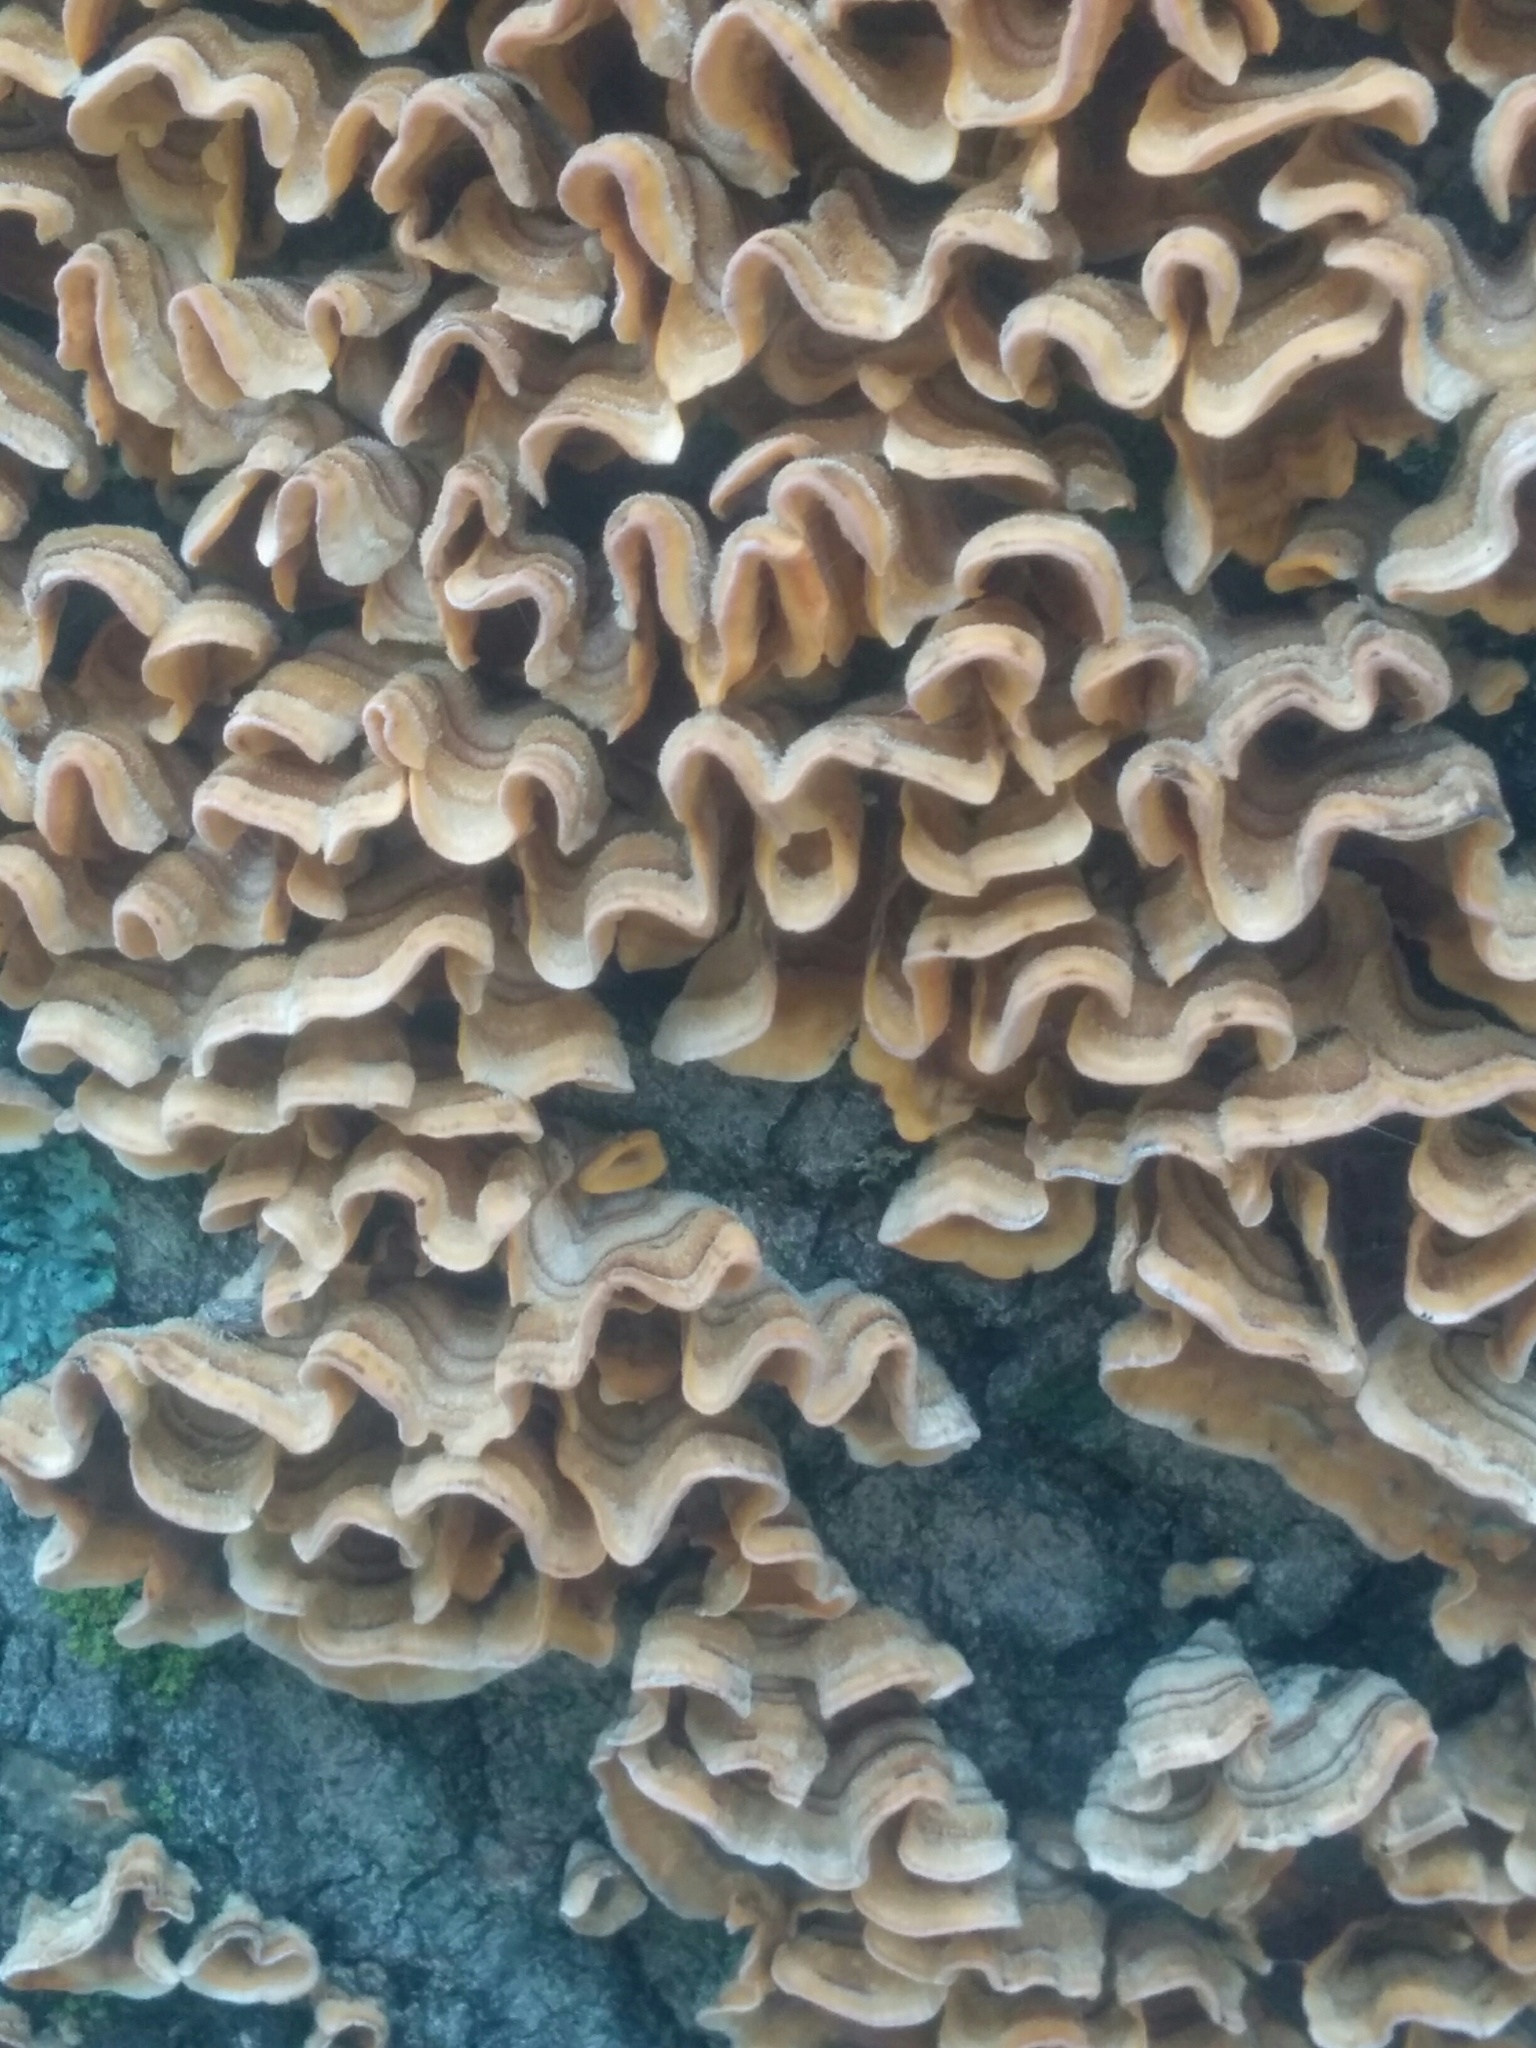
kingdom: Fungi
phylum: Basidiomycota
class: Agaricomycetes
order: Russulales
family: Stereaceae
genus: Stereum
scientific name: Stereum complicatum
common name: Crowded parchment
